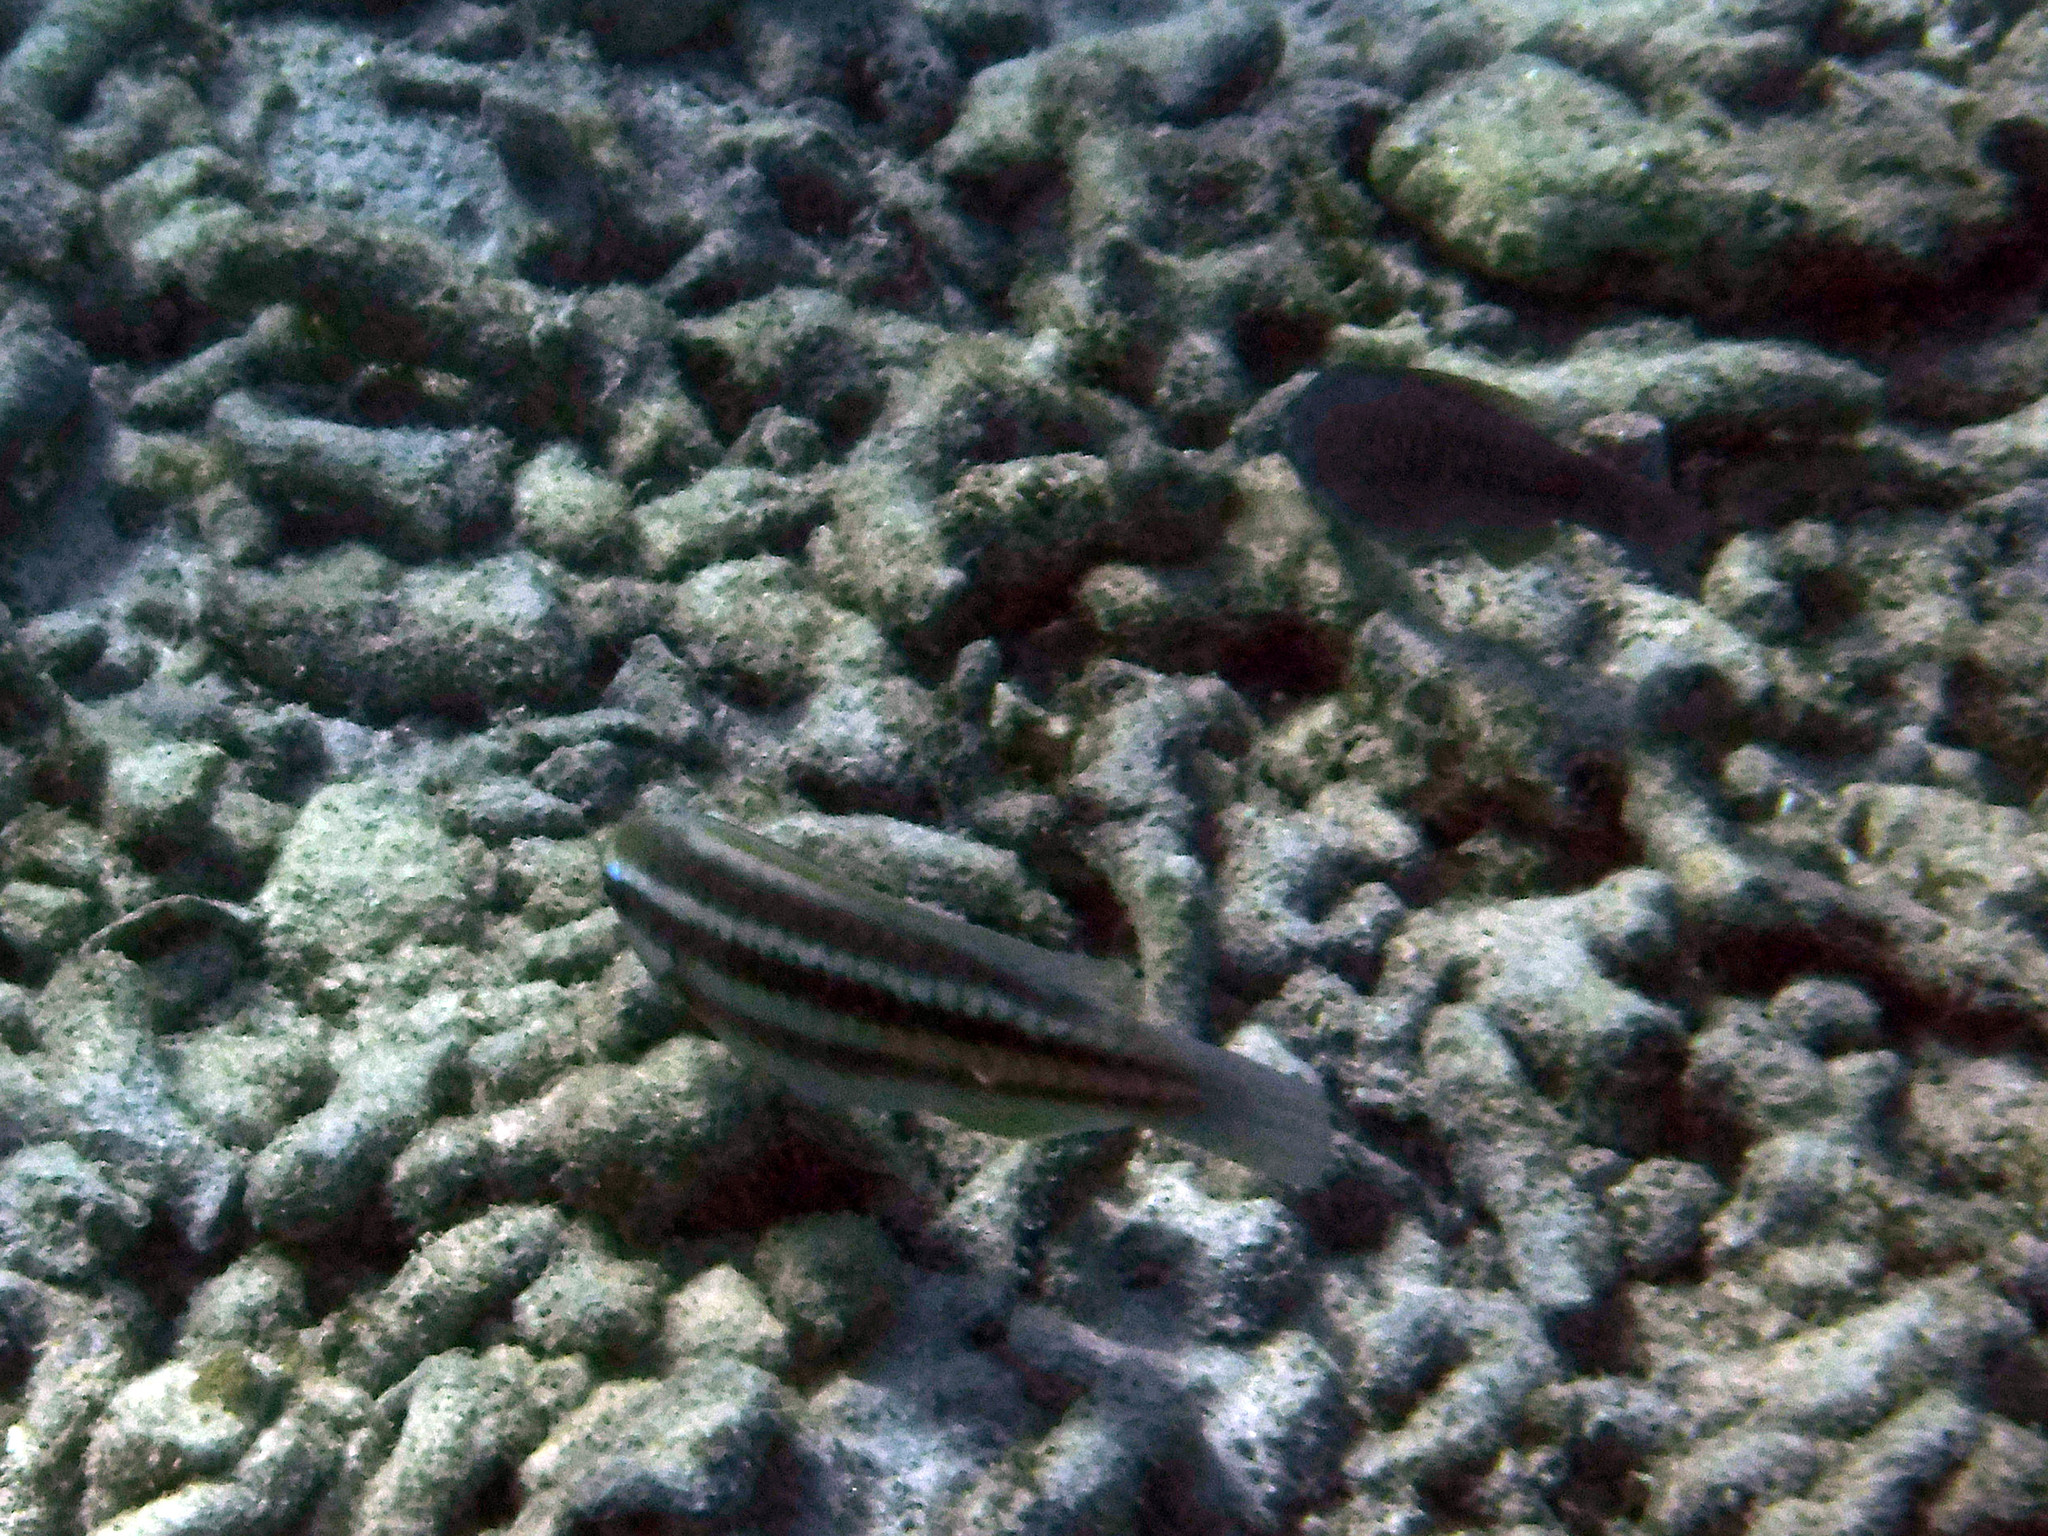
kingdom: Animalia
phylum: Chordata
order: Perciformes
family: Scaridae
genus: Scarus
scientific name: Scarus iseri
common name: Striped parrotfish
